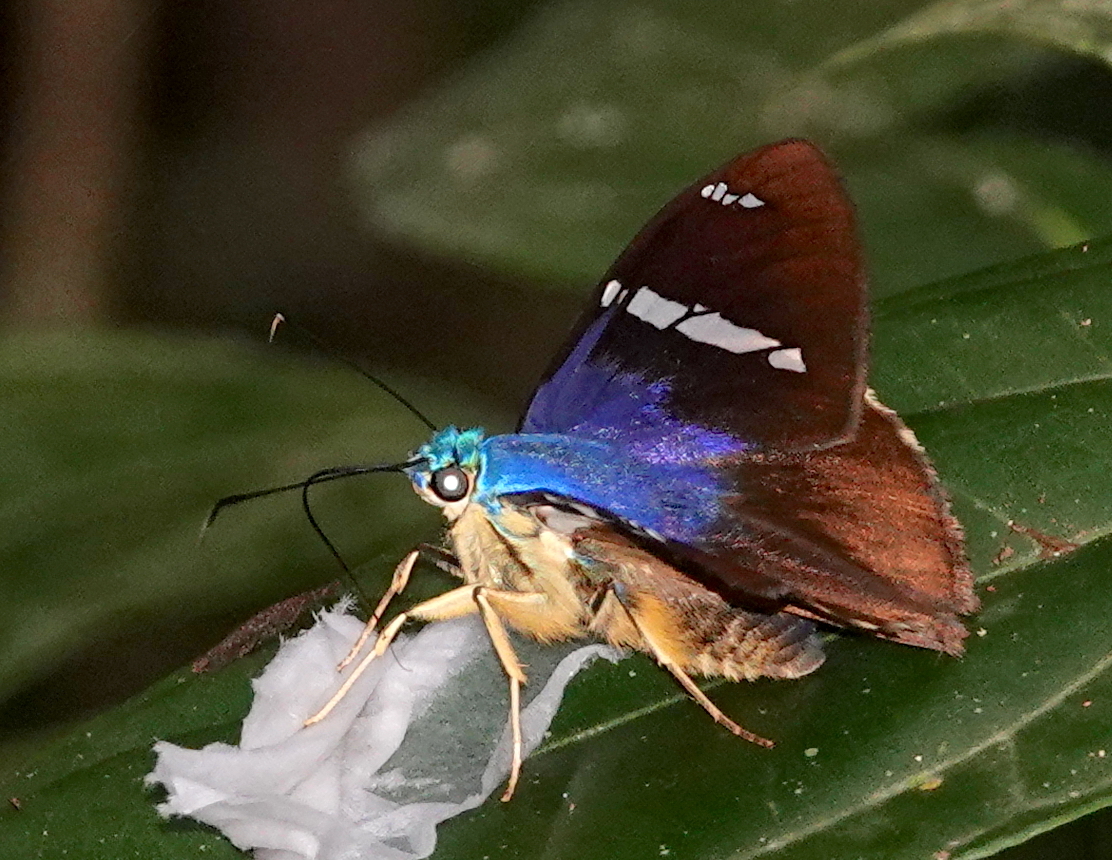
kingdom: Animalia
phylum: Arthropoda
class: Insecta
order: Lepidoptera
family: Hesperiidae
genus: Astraptes
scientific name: Astraptes fulgerator
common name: Two-barred flasher
